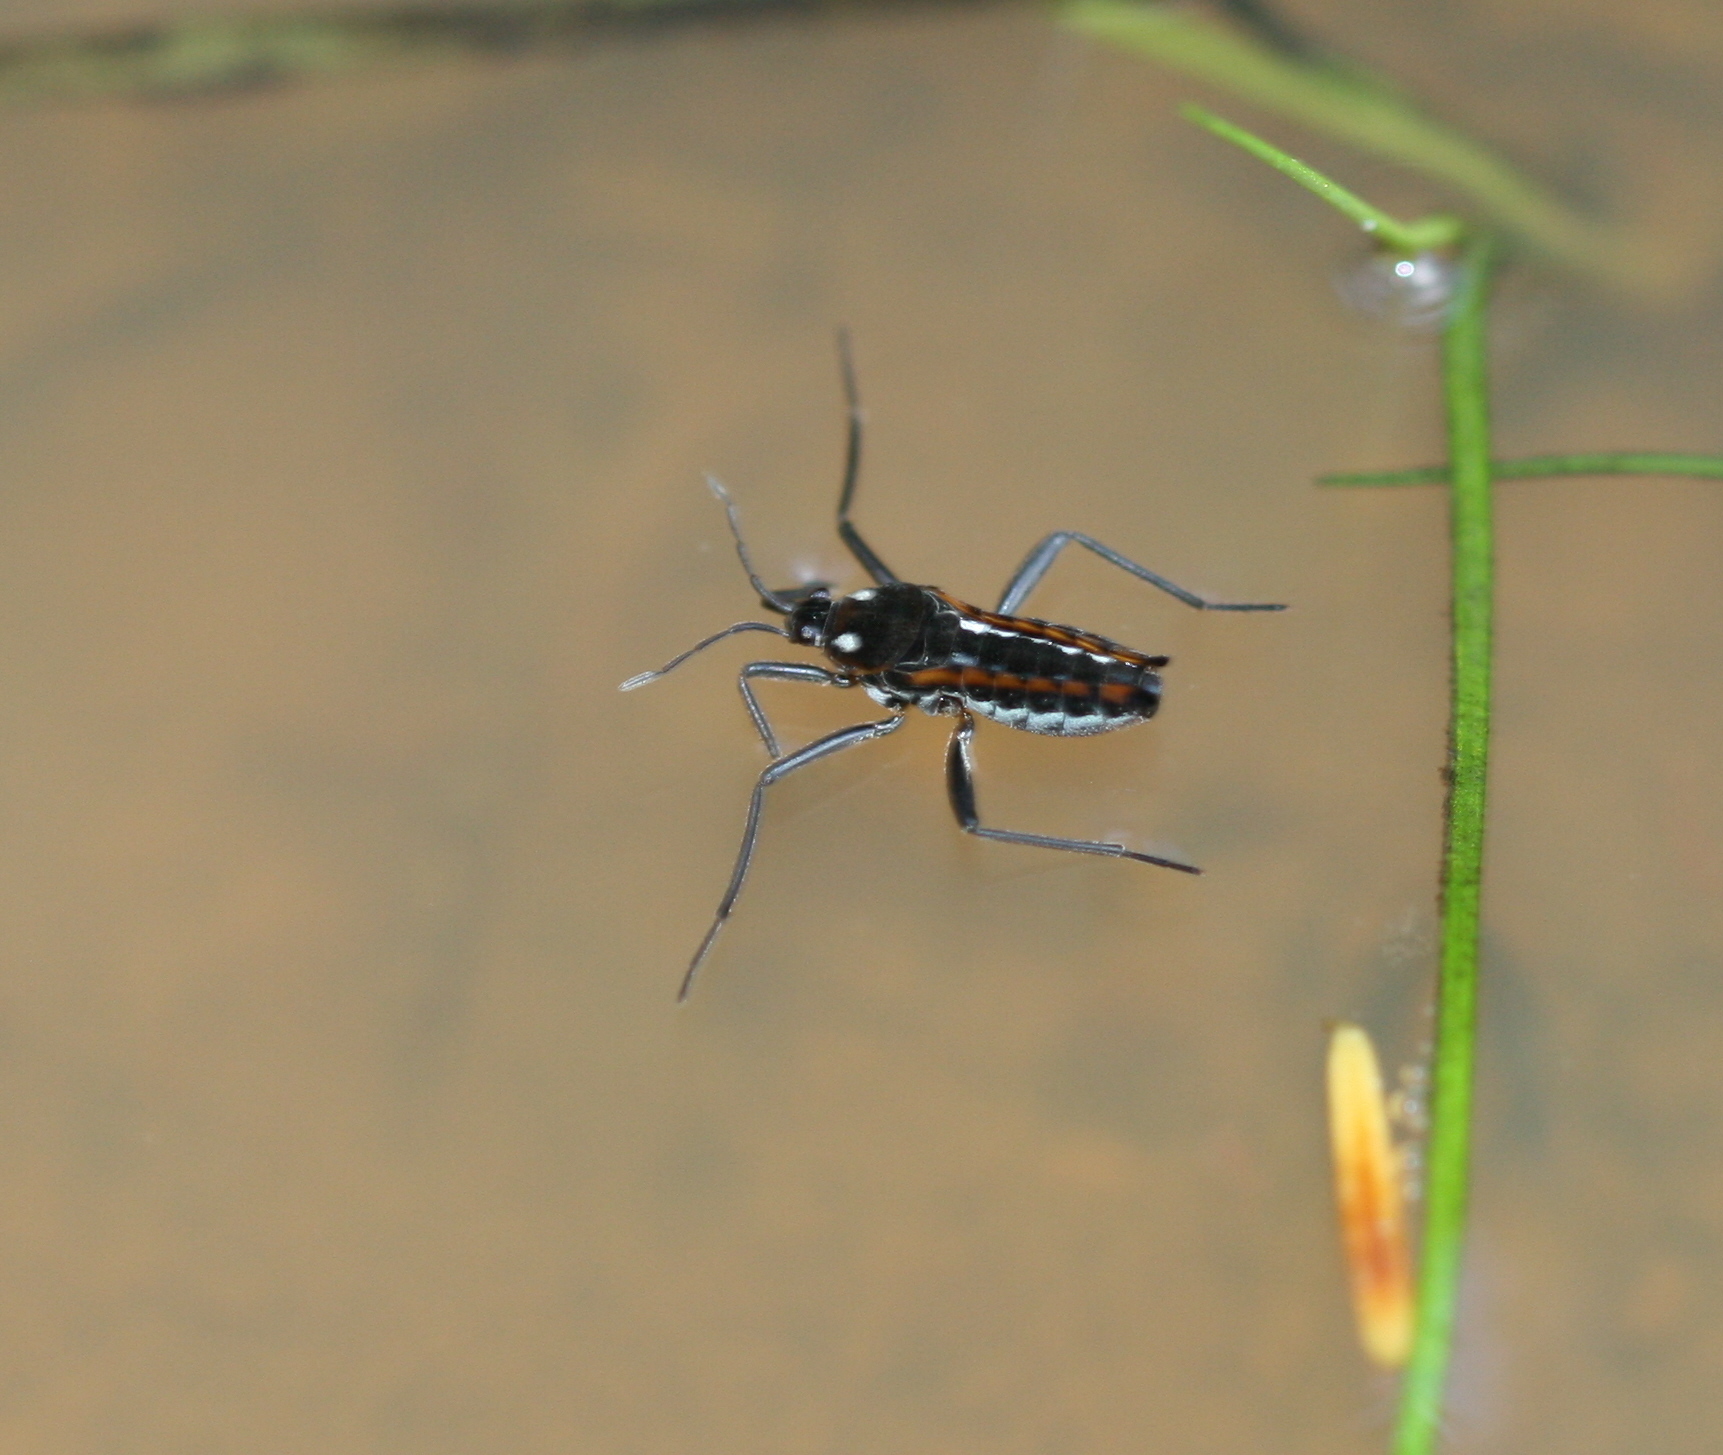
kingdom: Animalia
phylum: Arthropoda
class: Insecta
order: Hemiptera
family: Veliidae
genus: Velia
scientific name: Velia caprai
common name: Water cricket
